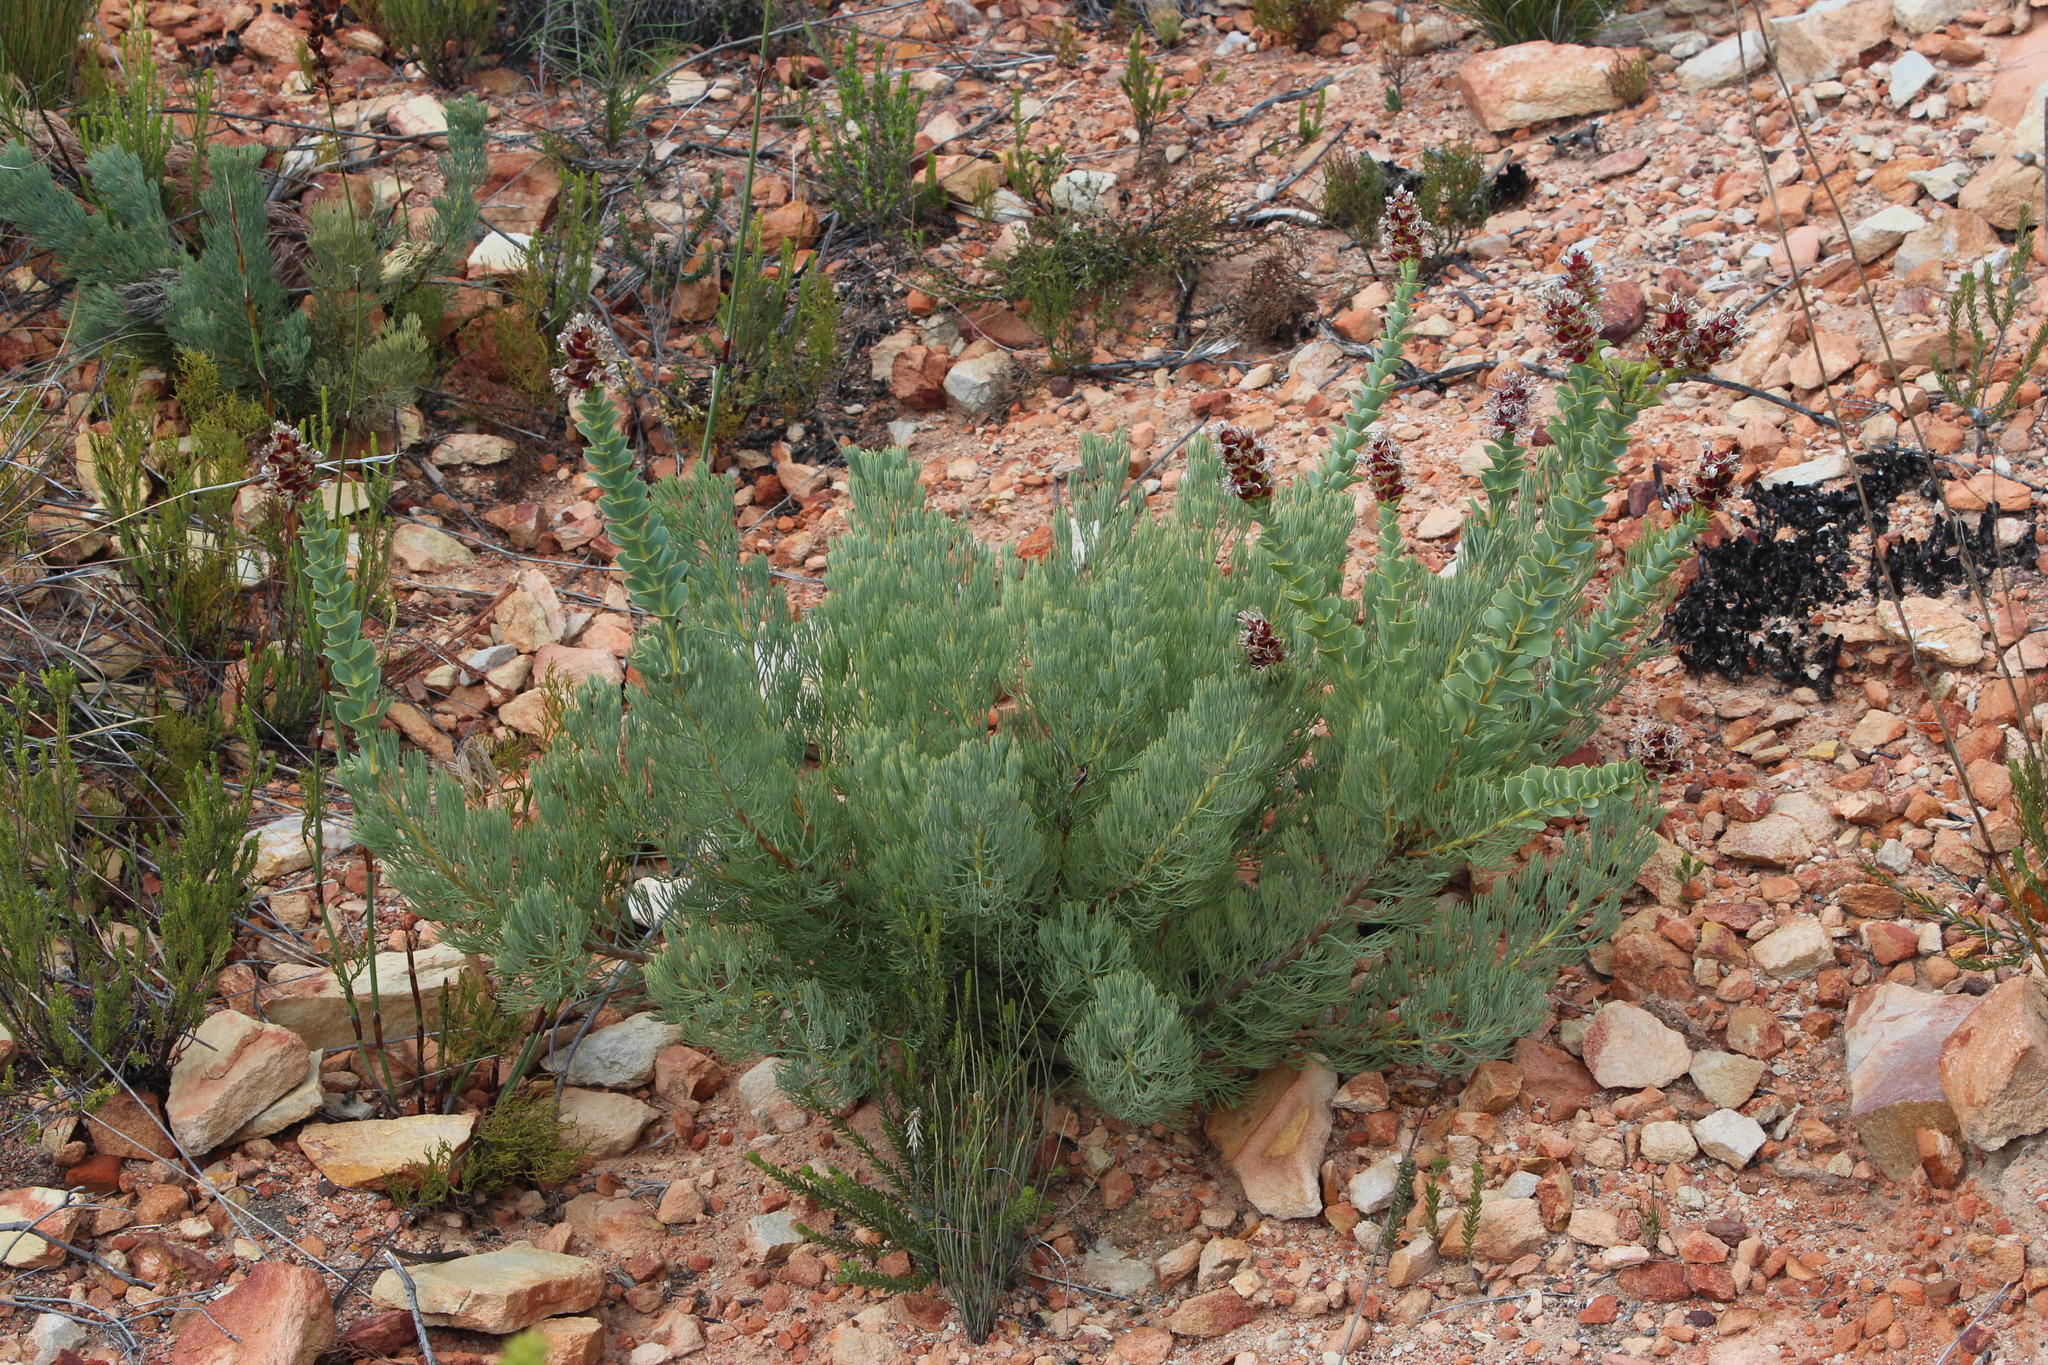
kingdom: Plantae
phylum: Tracheophyta
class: Magnoliopsida
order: Proteales
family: Proteaceae
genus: Paranomus
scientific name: Paranomus roodebergensis
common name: Honey-scented sceptre
